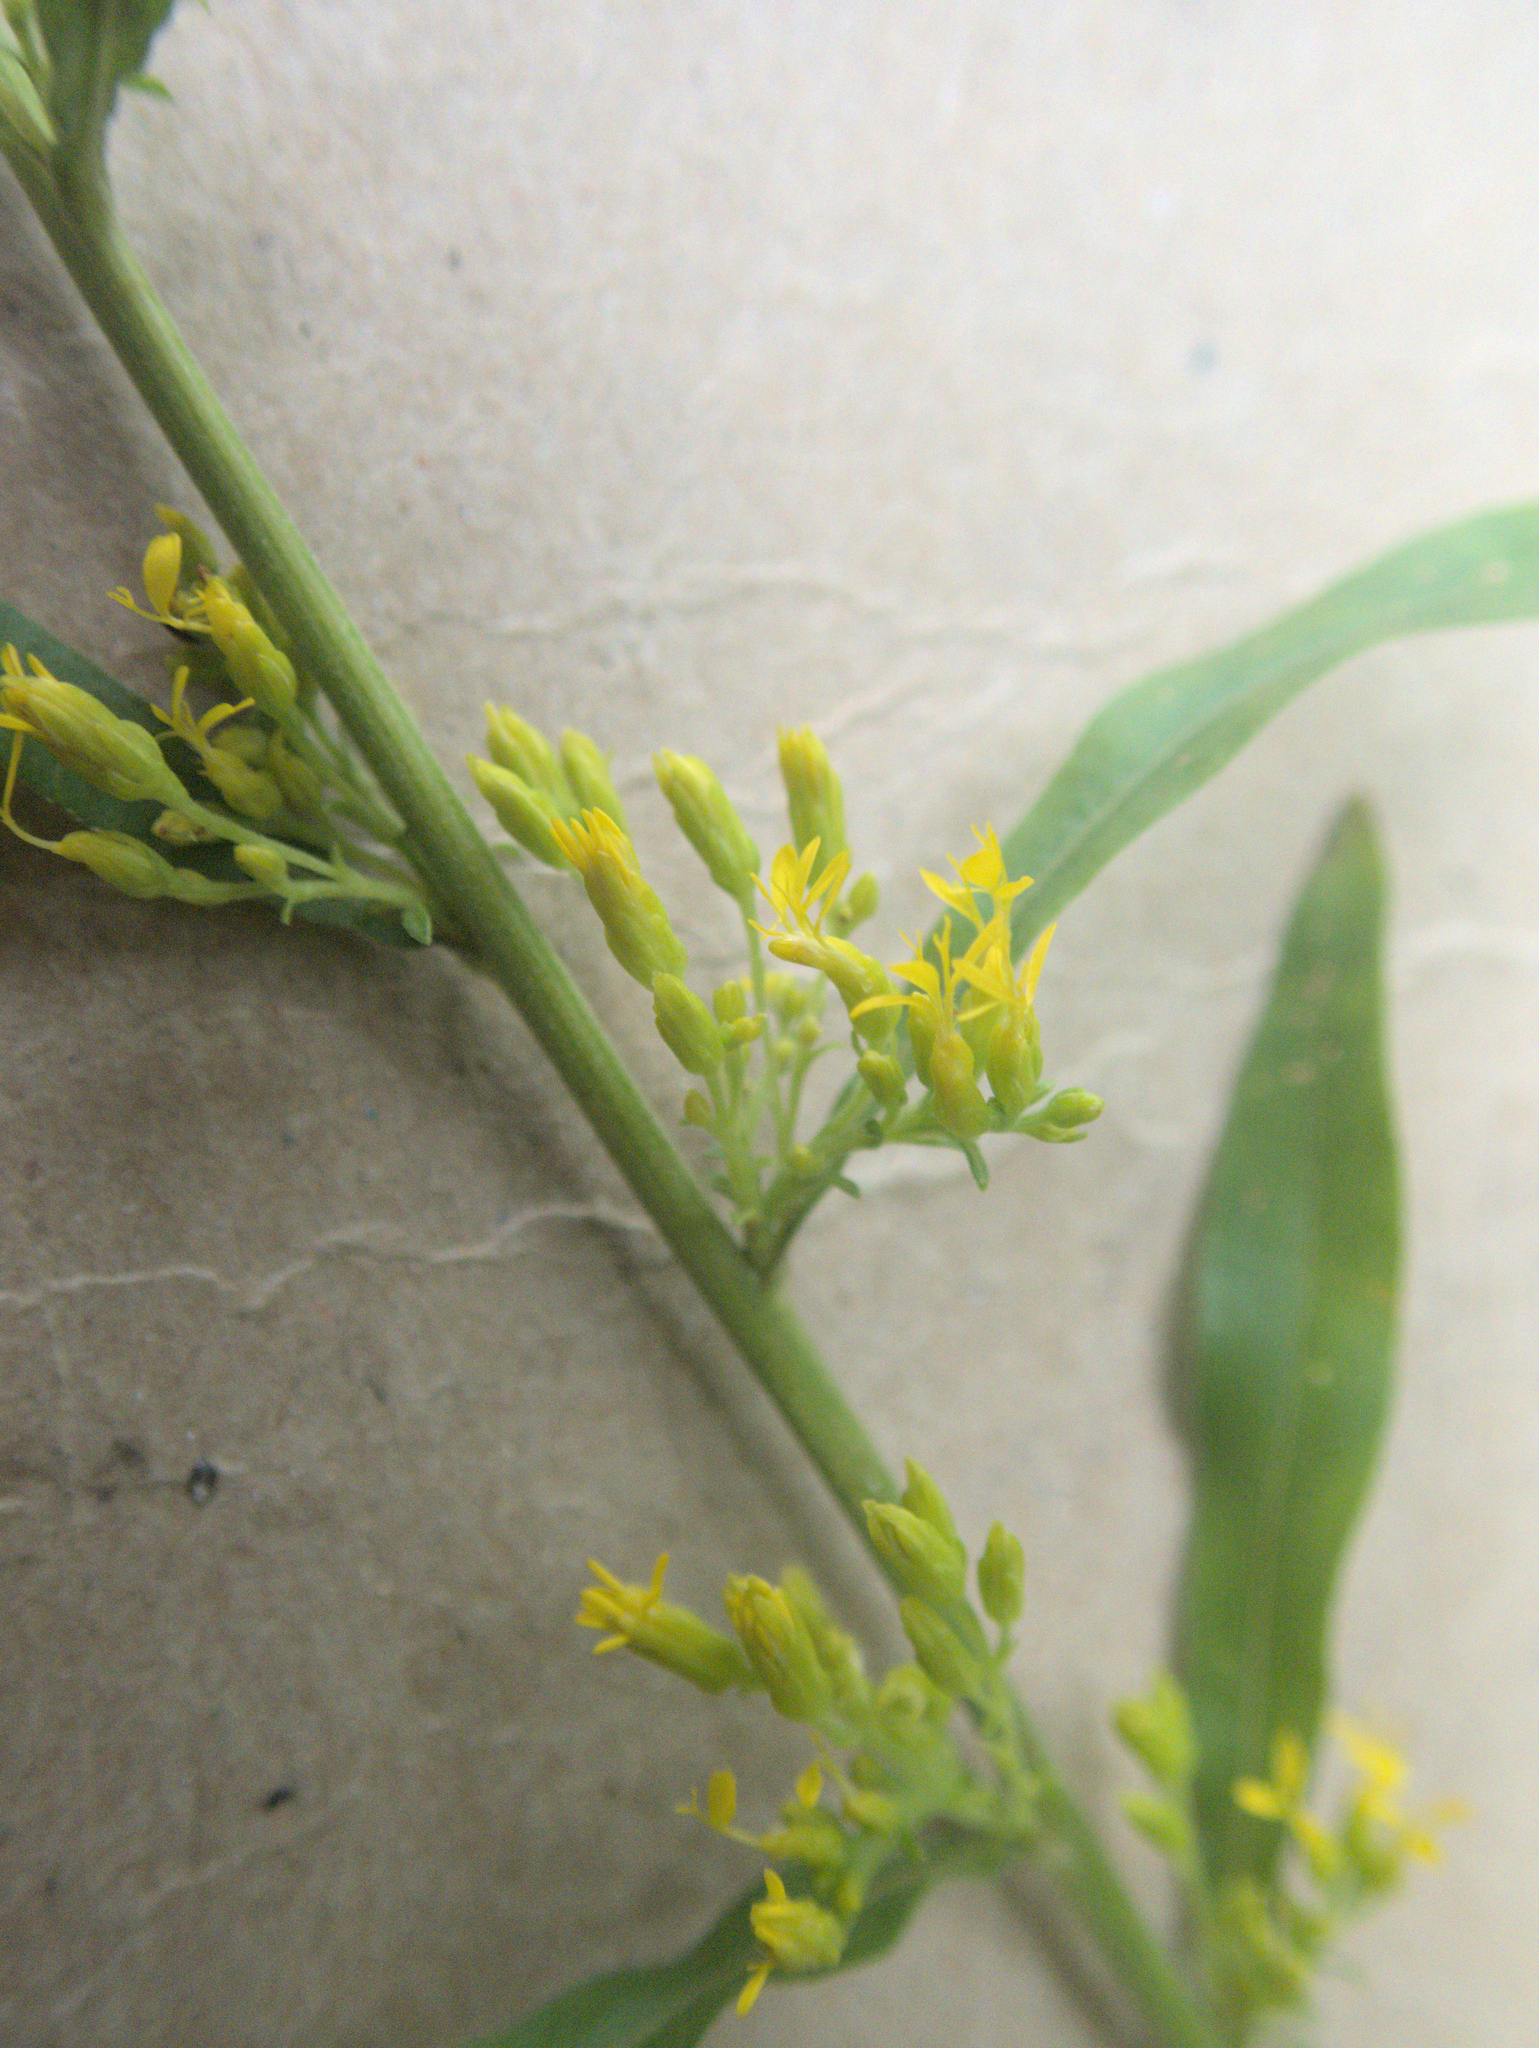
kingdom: Plantae
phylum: Tracheophyta
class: Magnoliopsida
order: Asterales
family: Asteraceae
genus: Solidago
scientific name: Solidago hispida
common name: Hairy goldenrod
